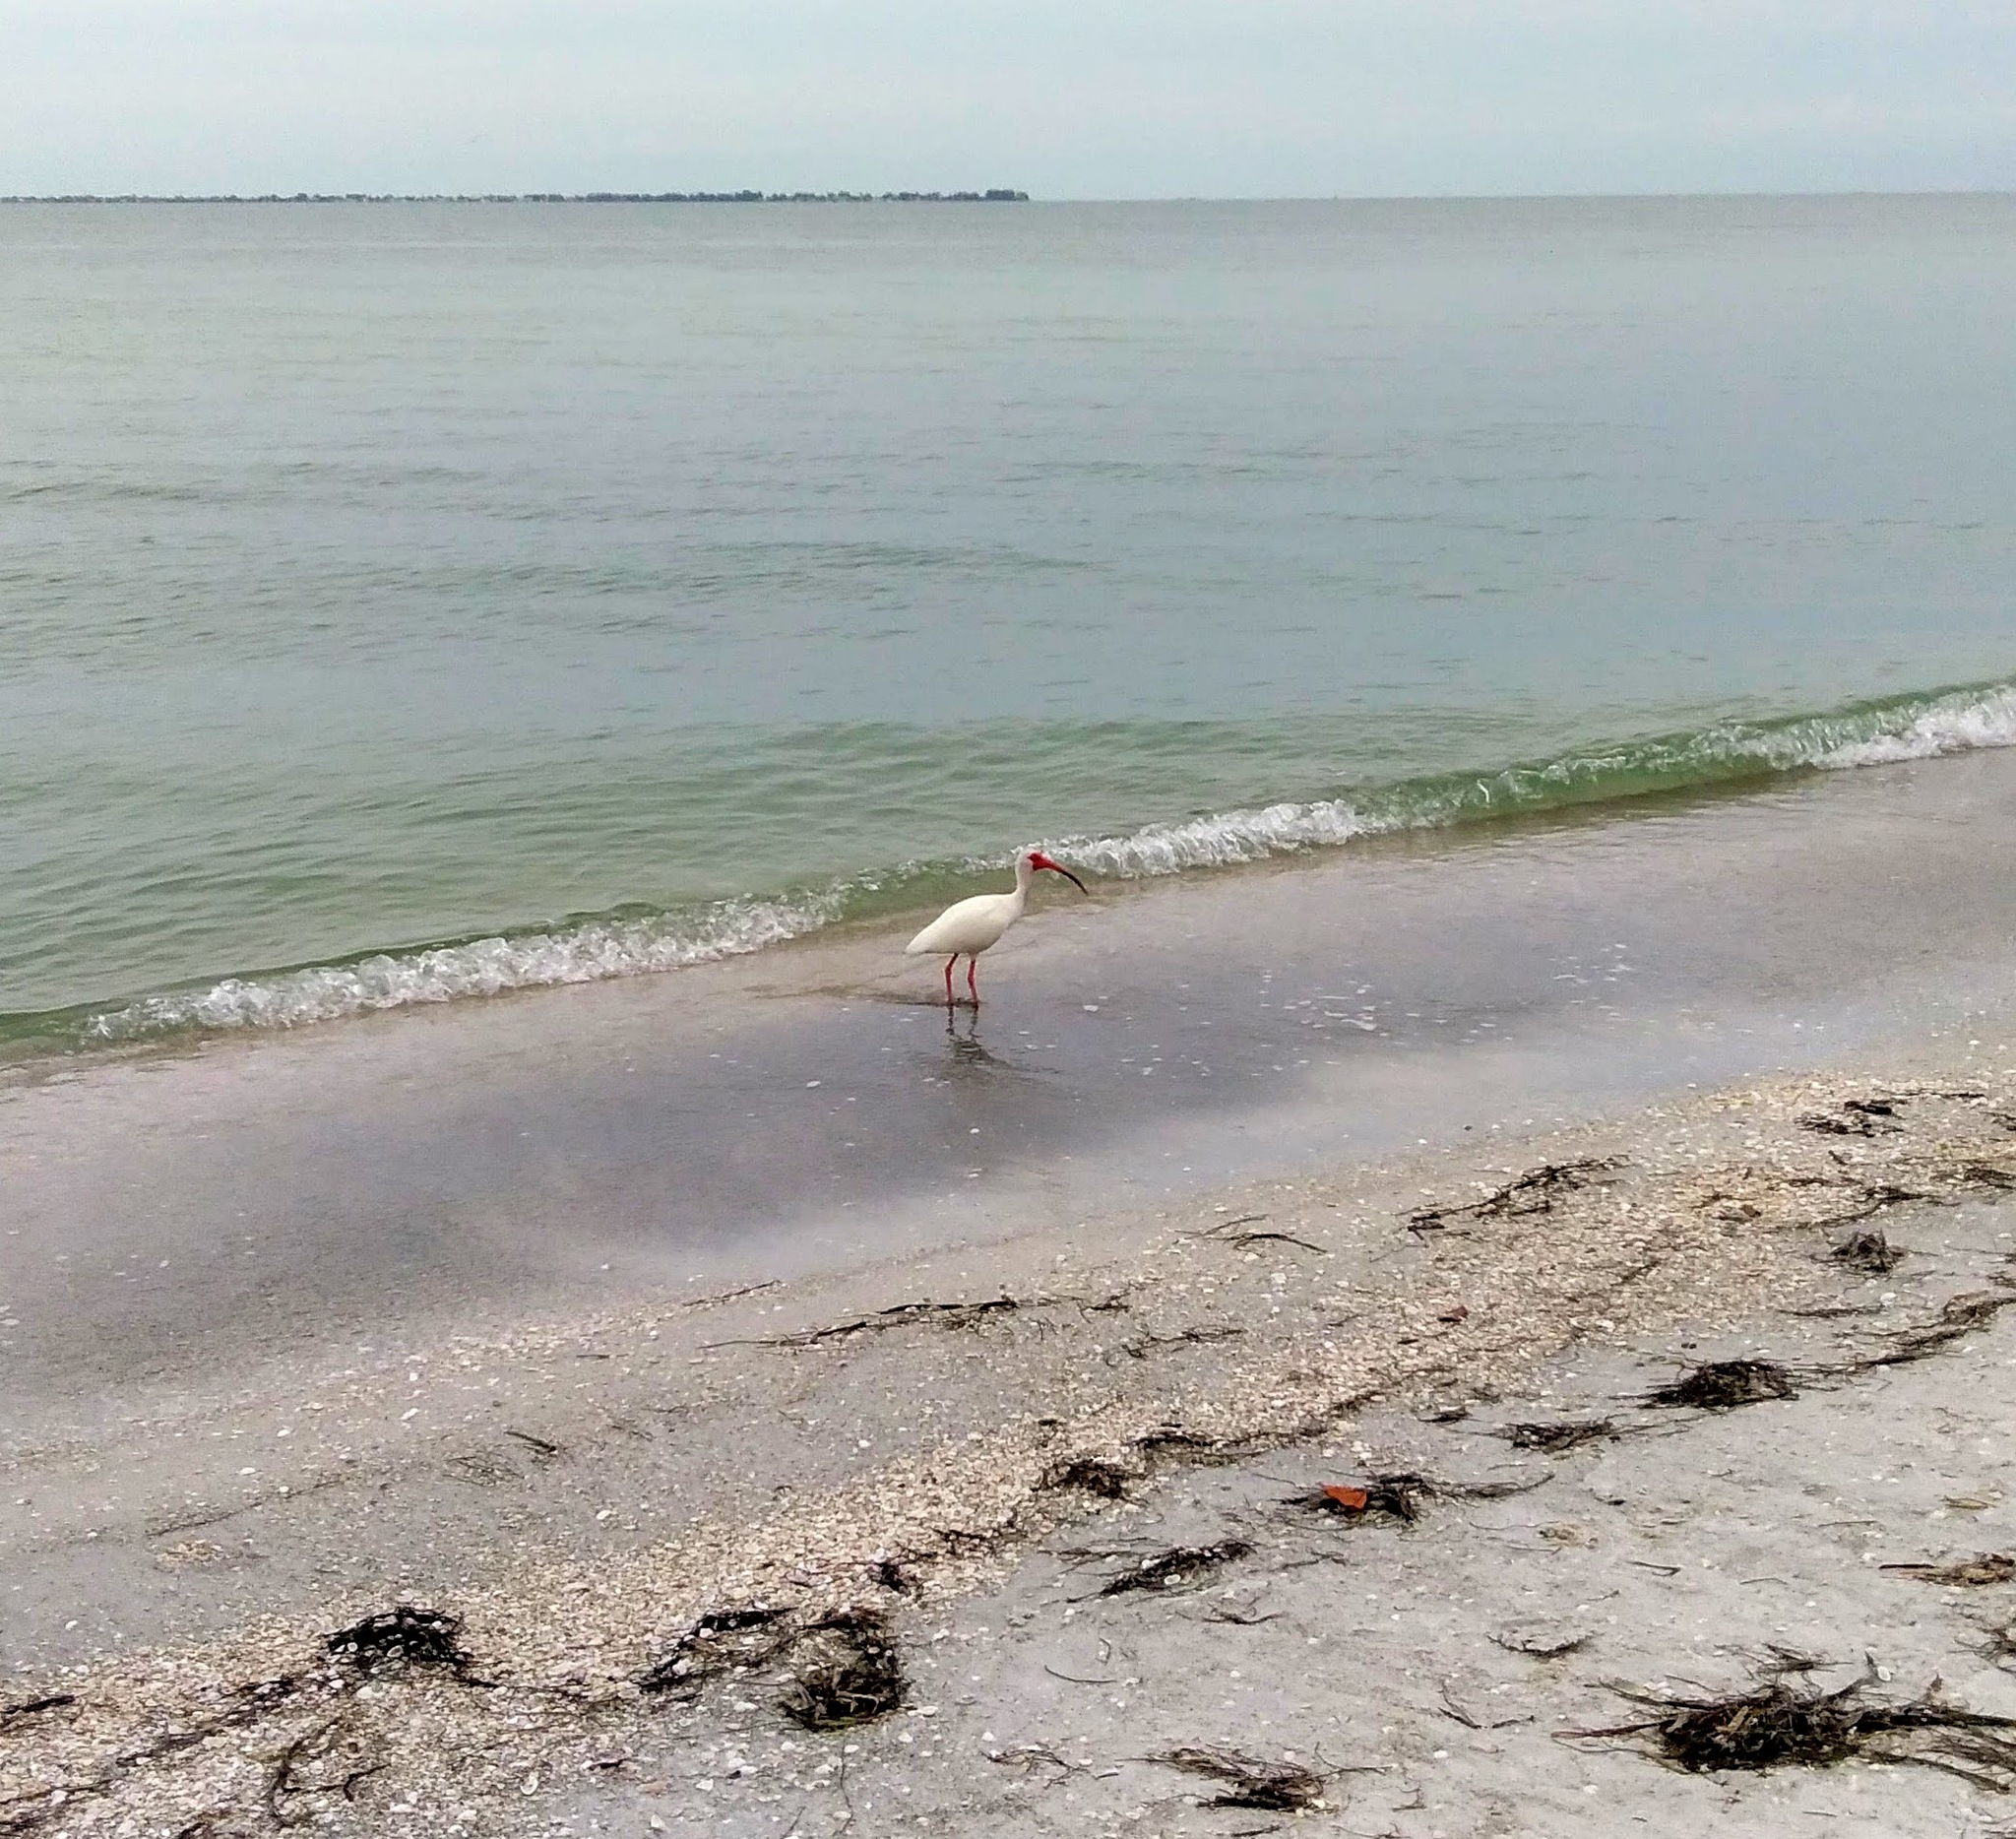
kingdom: Animalia
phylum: Chordata
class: Aves
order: Pelecaniformes
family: Threskiornithidae
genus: Eudocimus
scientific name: Eudocimus albus
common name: White ibis
